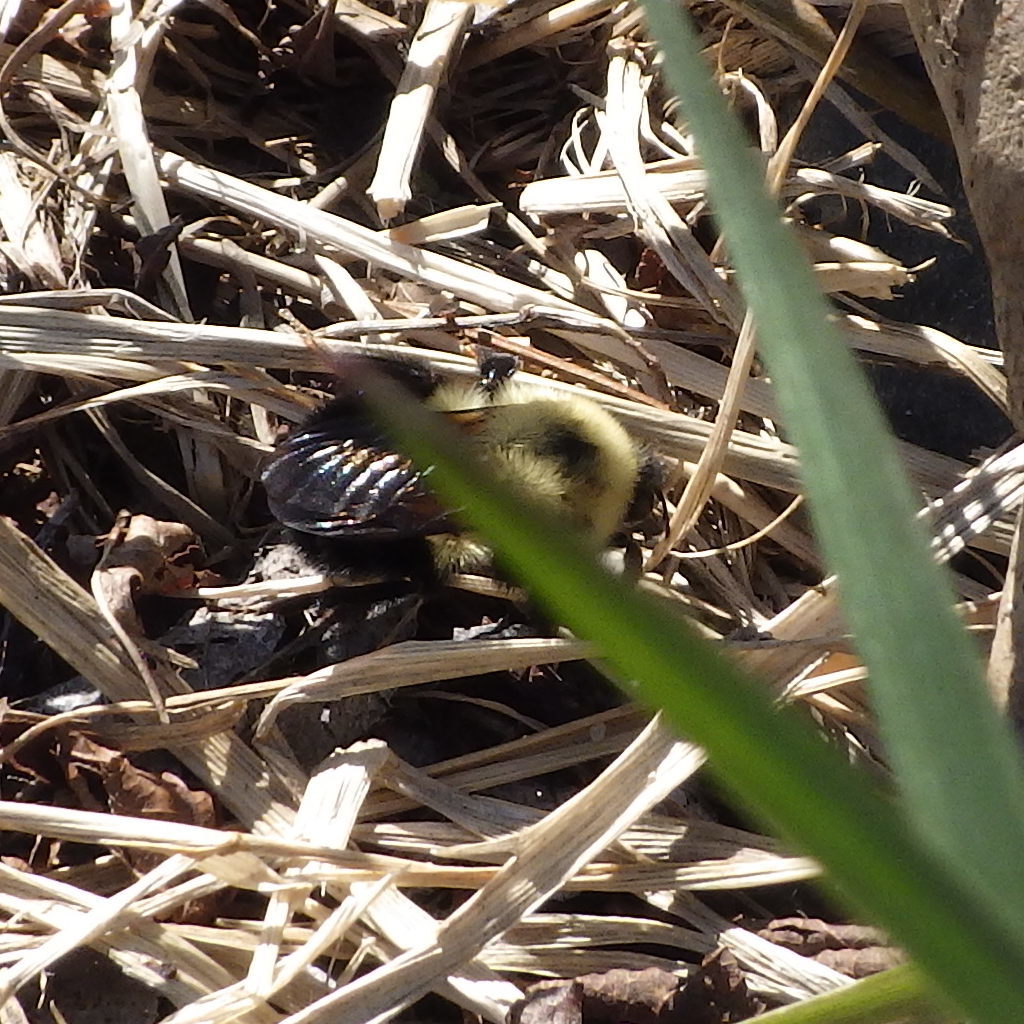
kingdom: Animalia
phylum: Arthropoda
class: Insecta
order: Hymenoptera
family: Apidae
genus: Bombus
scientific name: Bombus bimaculatus
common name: Two-spotted bumble bee
